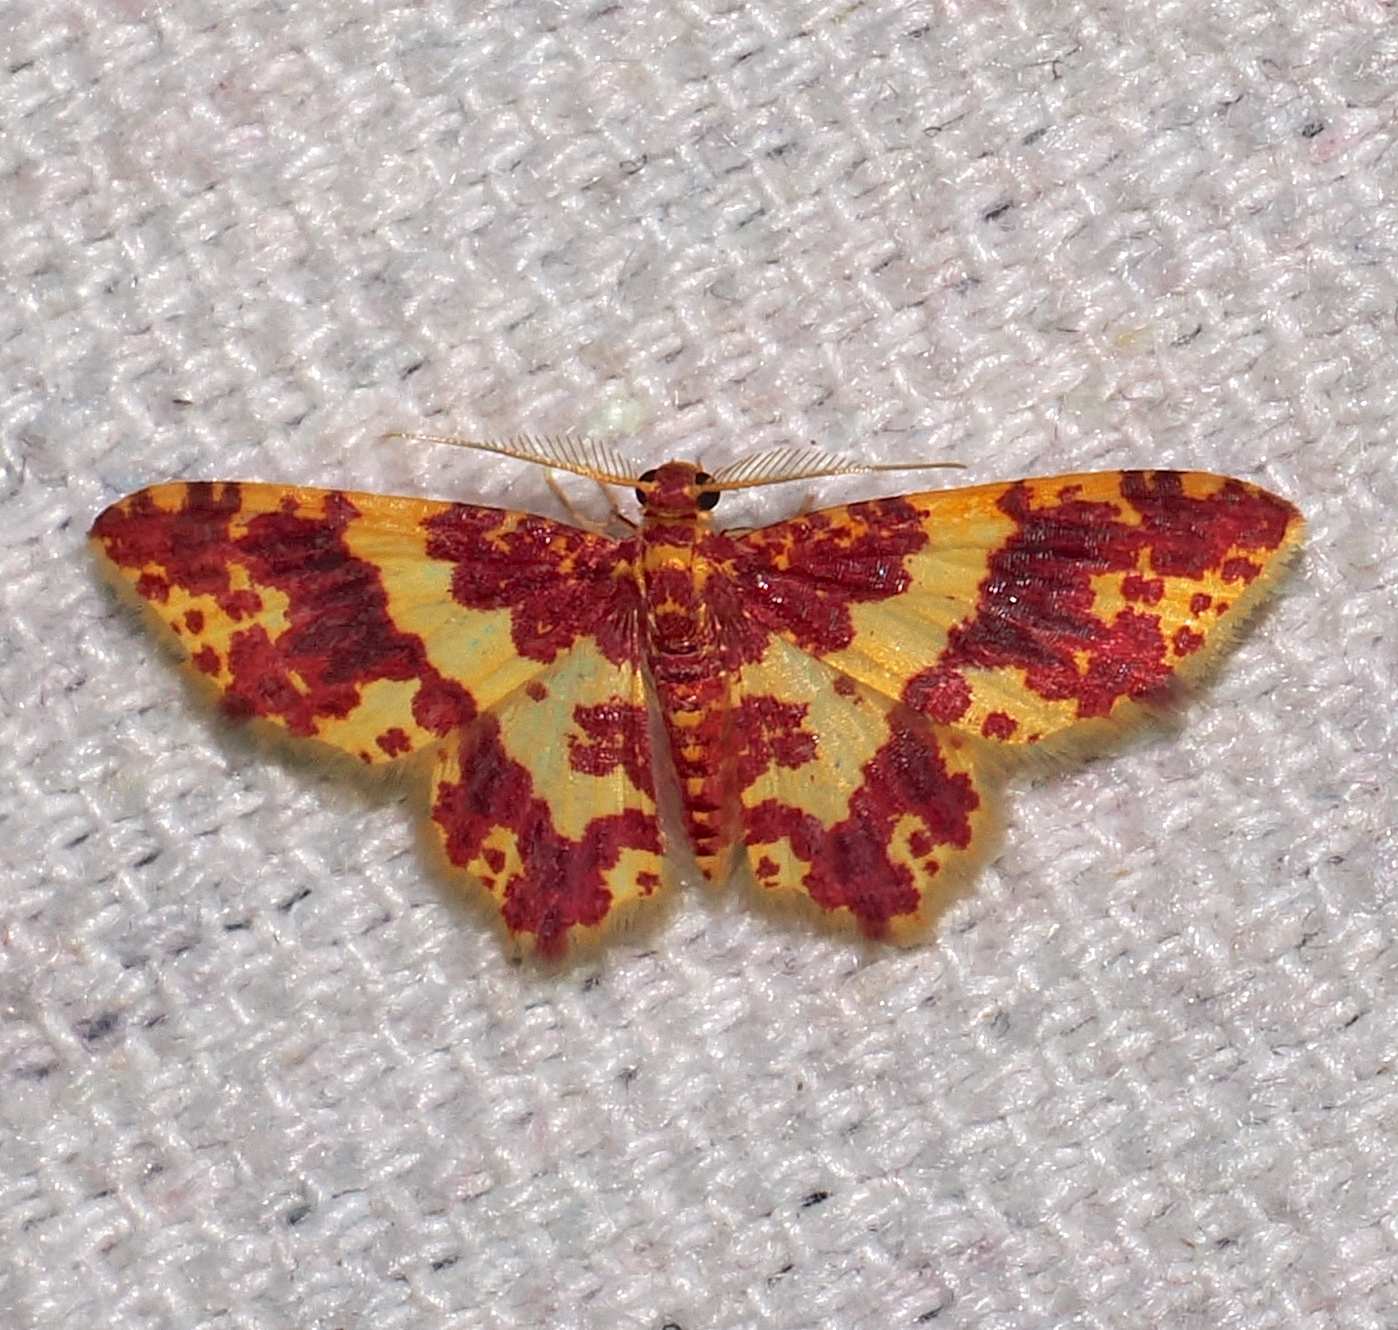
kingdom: Animalia
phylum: Arthropoda
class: Insecta
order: Lepidoptera
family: Geometridae
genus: Eois
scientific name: Eois escamata
